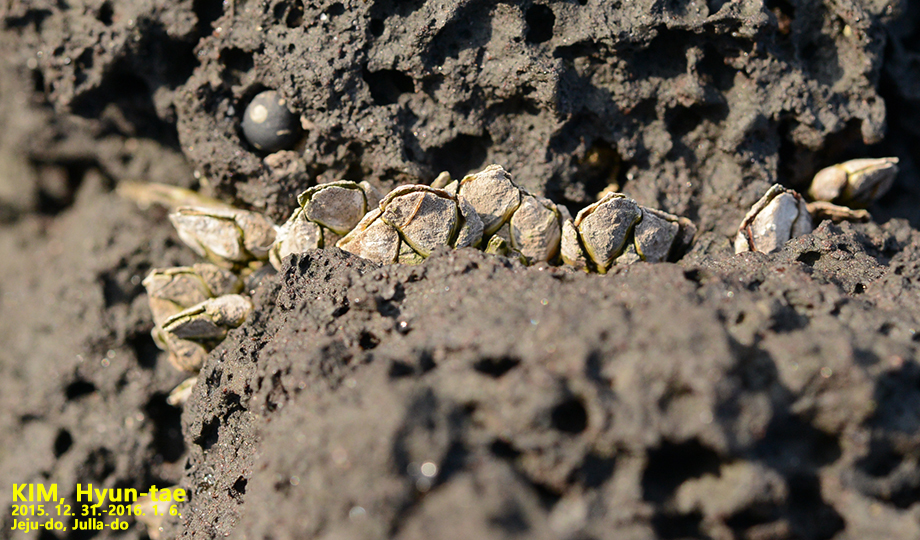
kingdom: Animalia
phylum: Arthropoda
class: Maxillopoda
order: Pedunculata
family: Pollicipedidae
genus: Capitulum
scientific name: Capitulum mitella
